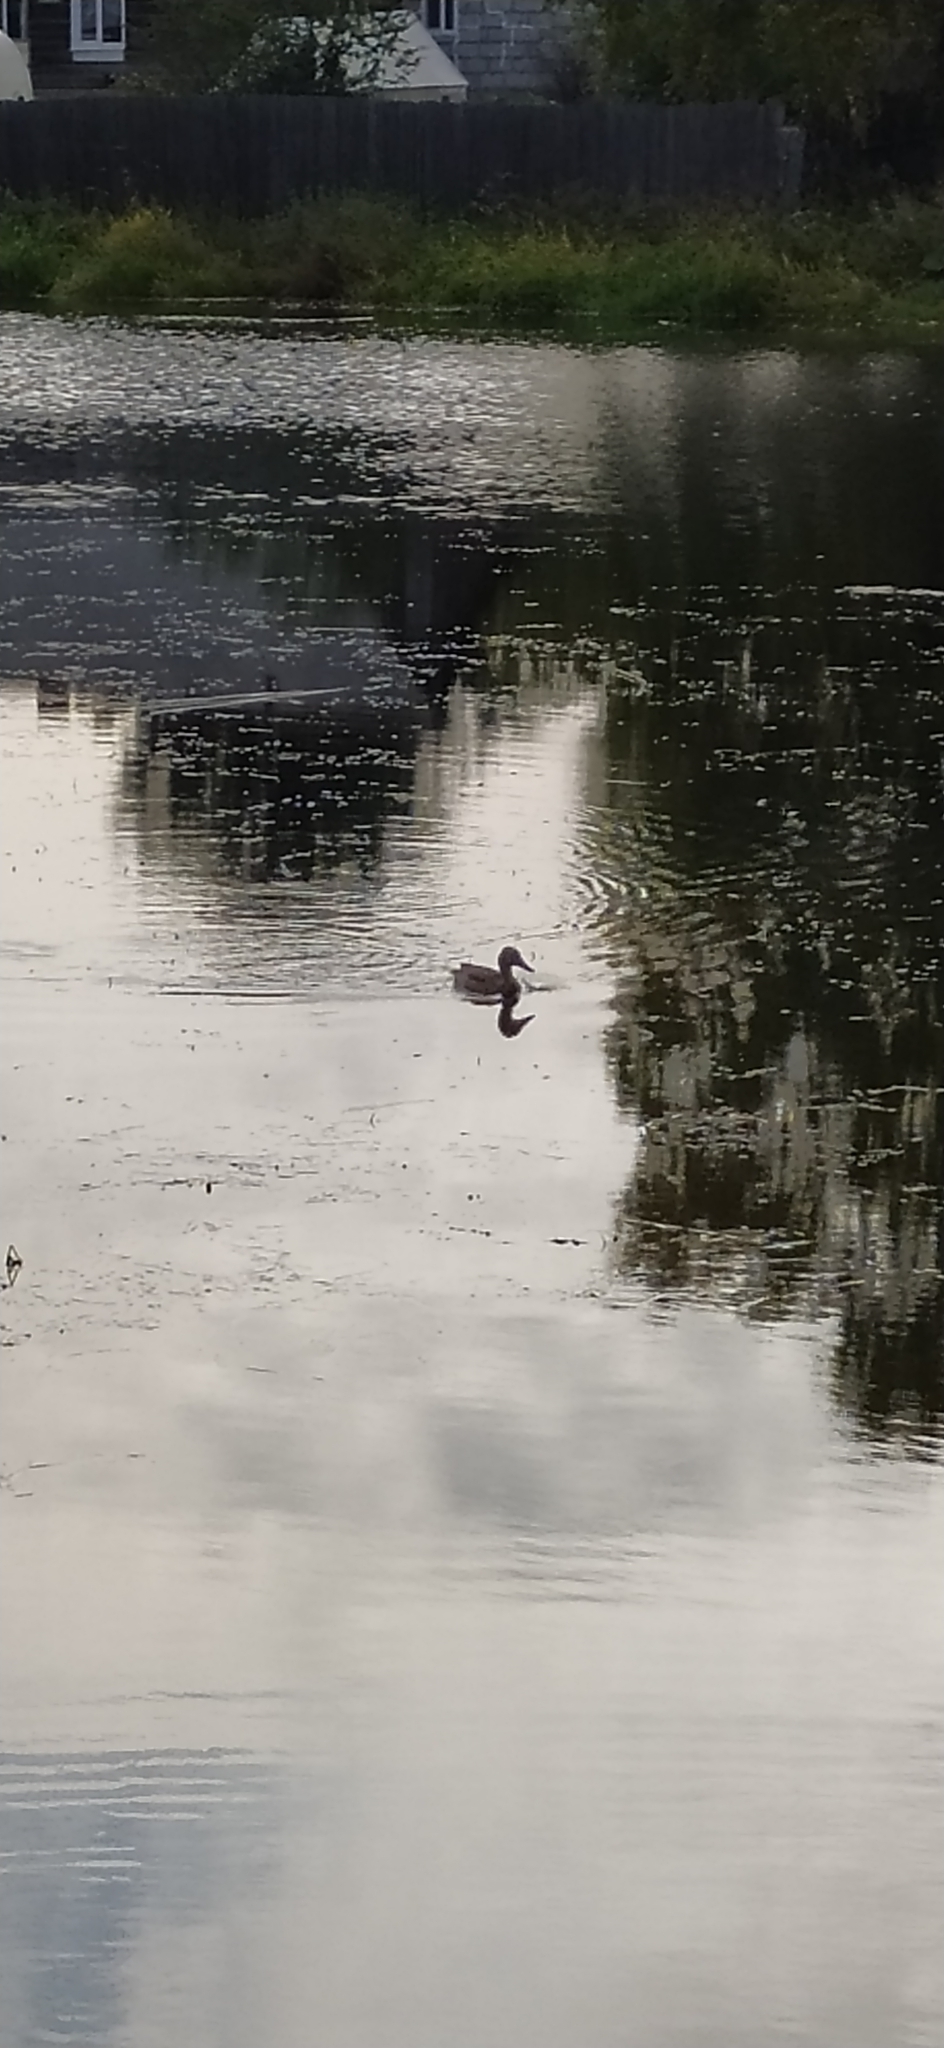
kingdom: Animalia
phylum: Chordata
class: Aves
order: Anseriformes
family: Anatidae
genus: Anas
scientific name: Anas platyrhynchos
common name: Mallard
